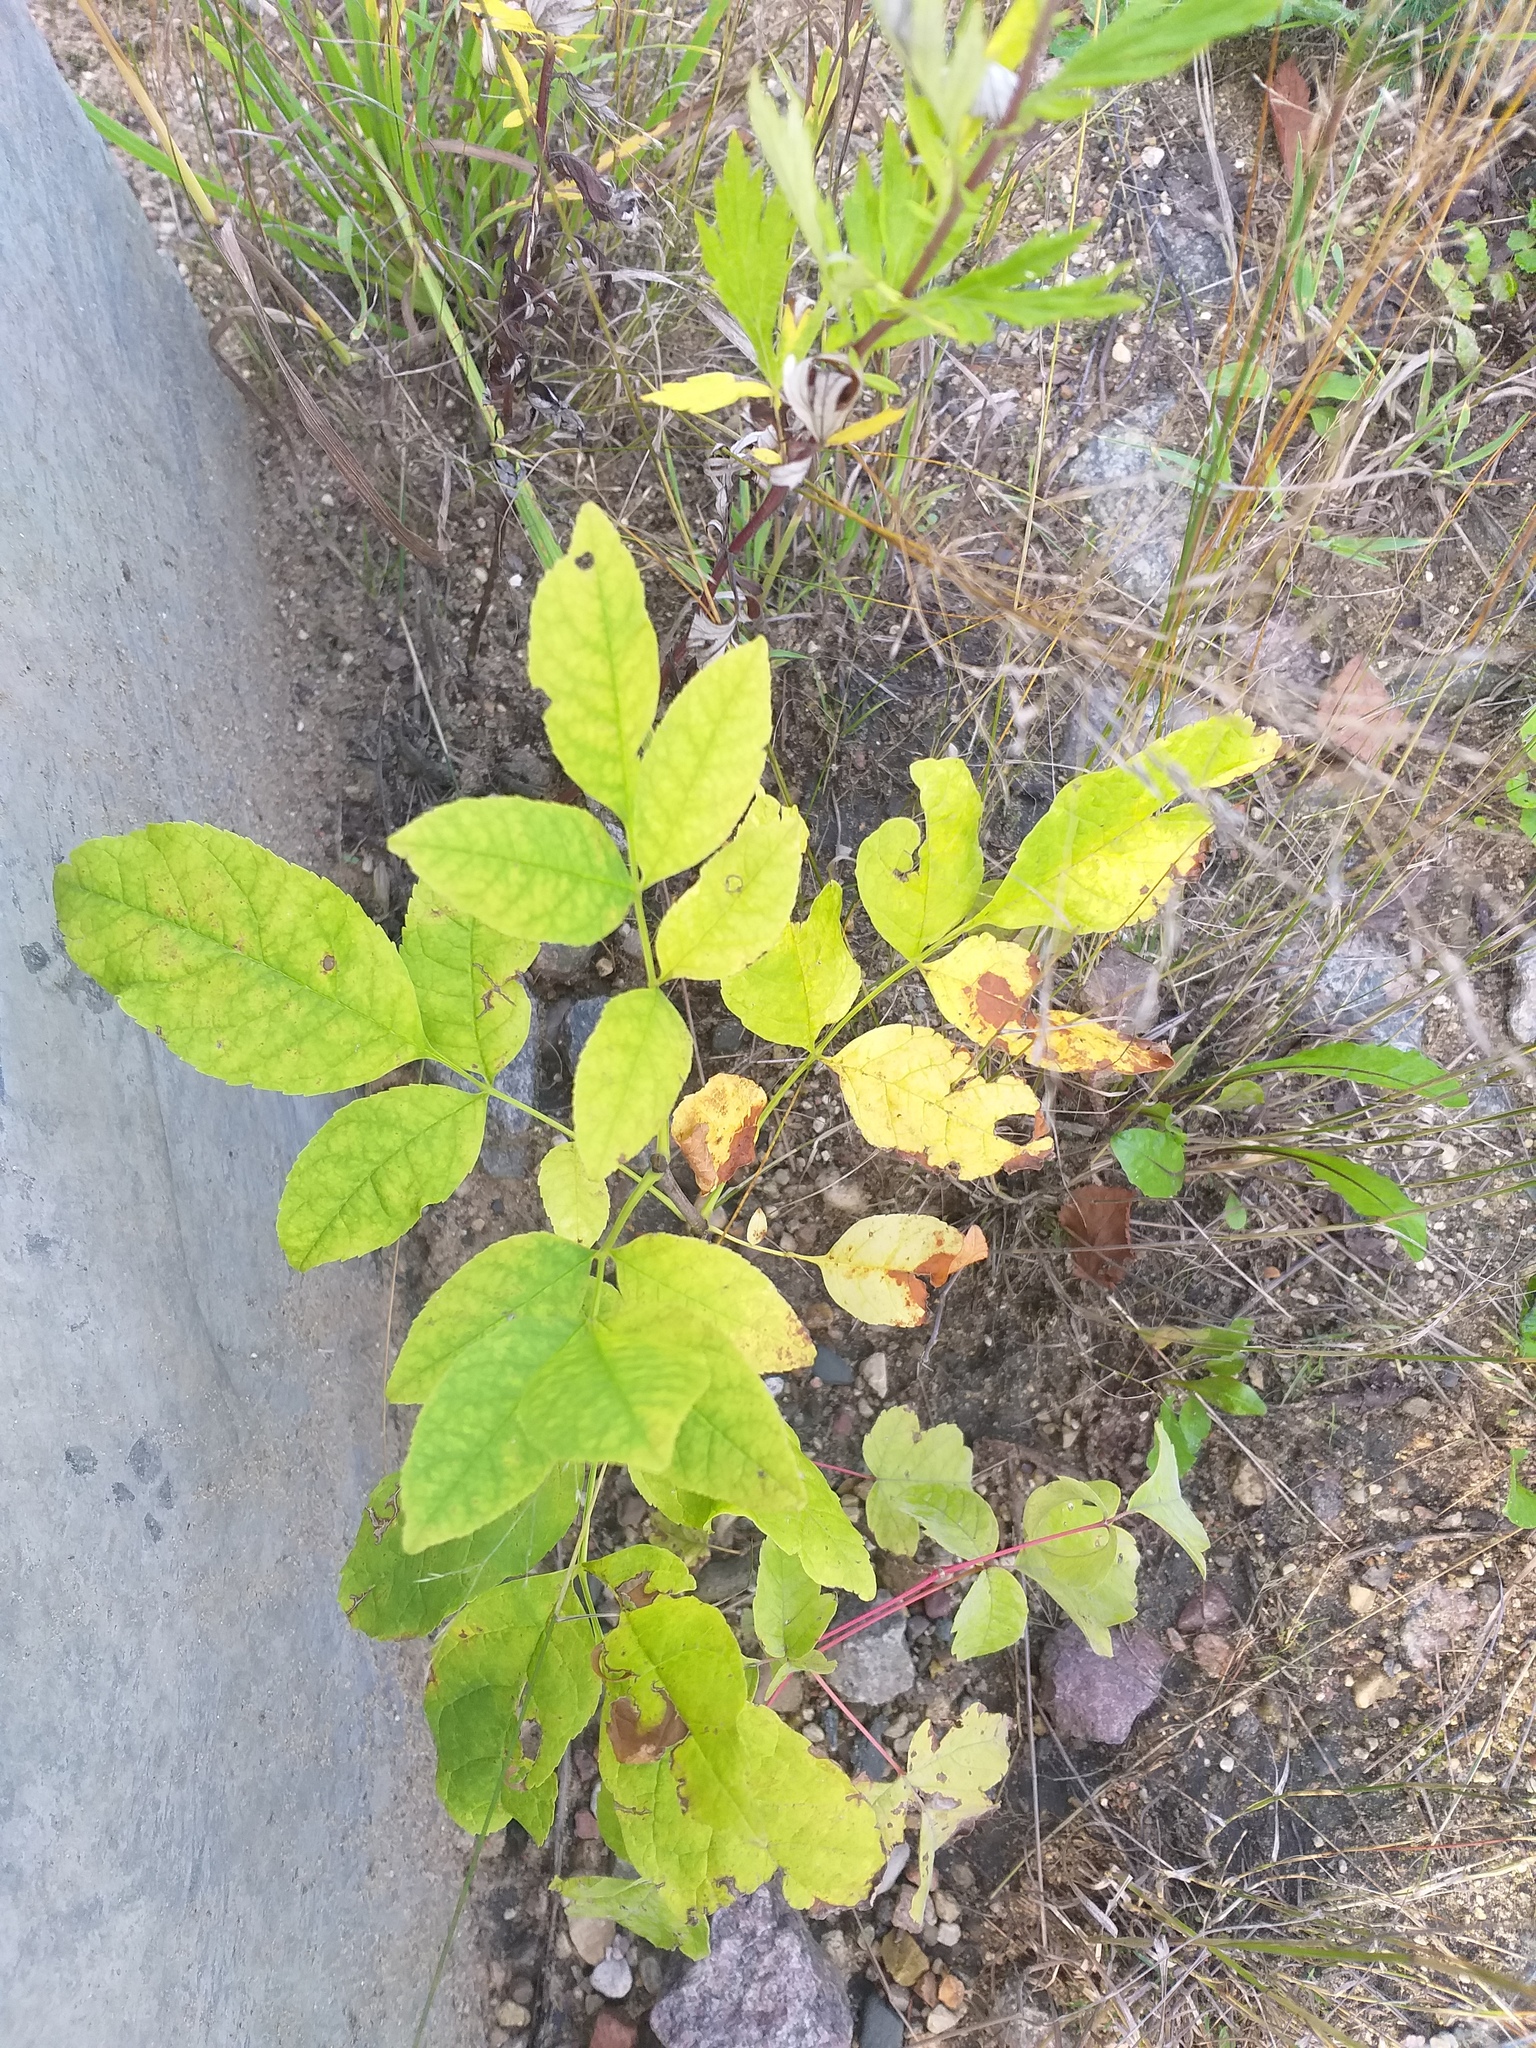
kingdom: Plantae
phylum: Tracheophyta
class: Magnoliopsida
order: Lamiales
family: Oleaceae
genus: Fraxinus
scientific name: Fraxinus excelsior
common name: European ash
